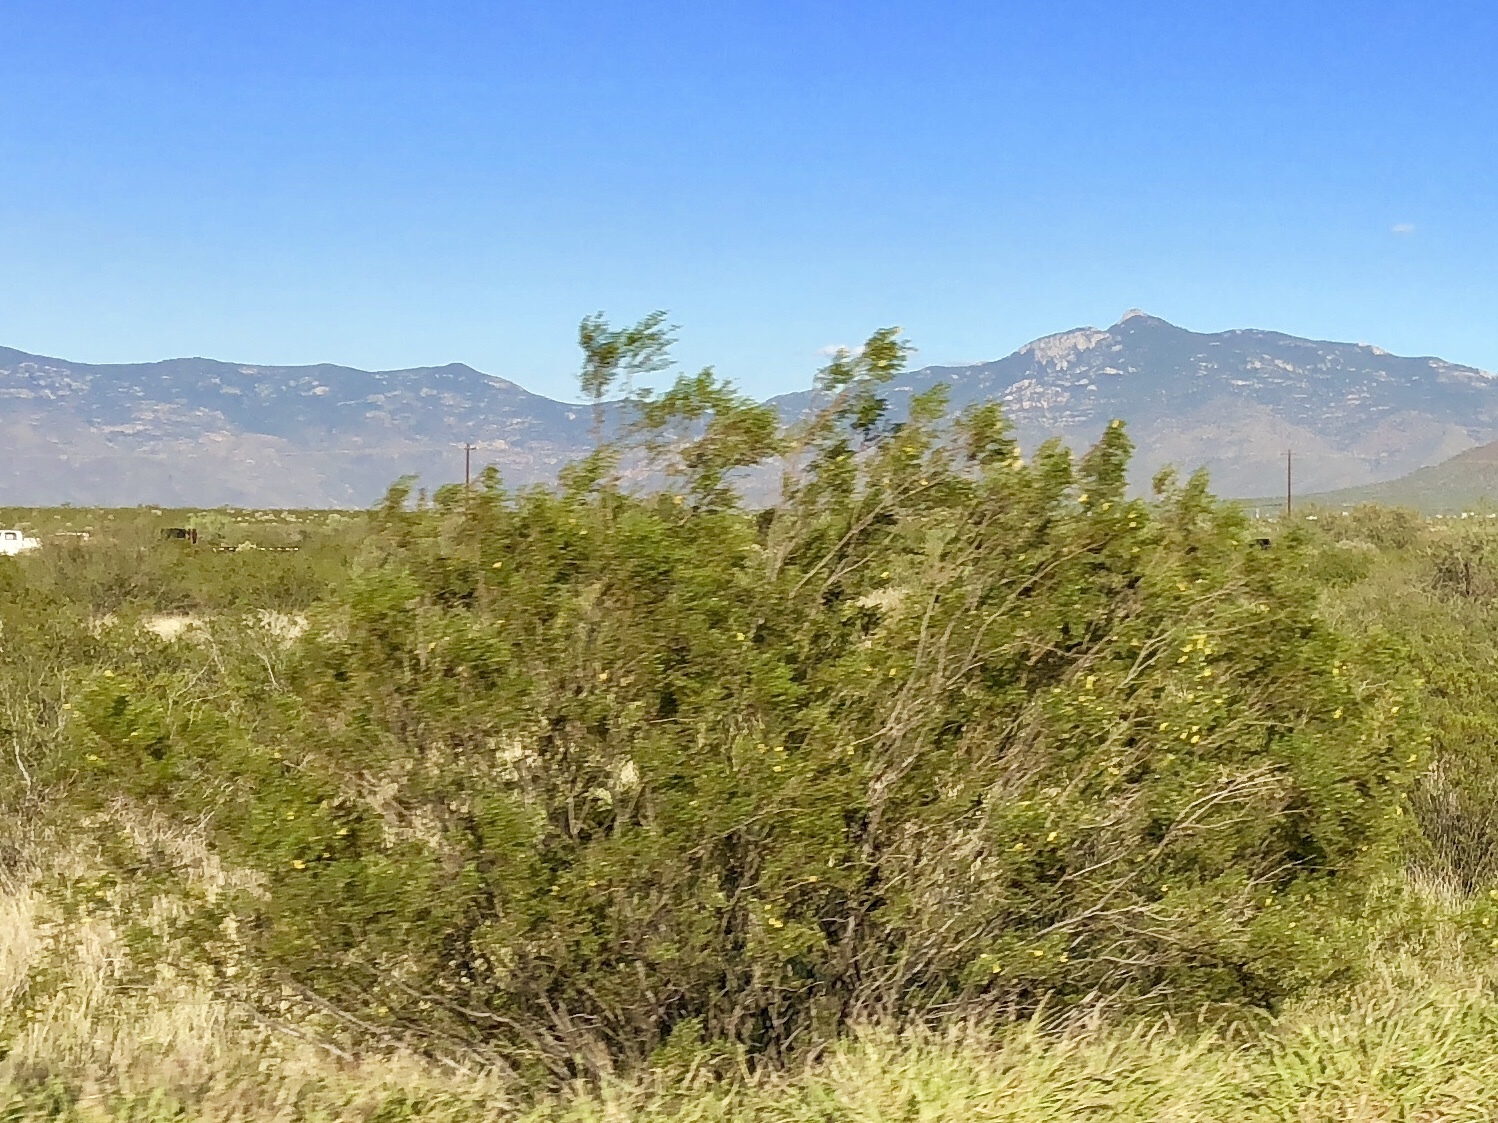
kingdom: Plantae
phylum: Tracheophyta
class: Magnoliopsida
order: Zygophyllales
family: Zygophyllaceae
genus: Larrea
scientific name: Larrea tridentata
